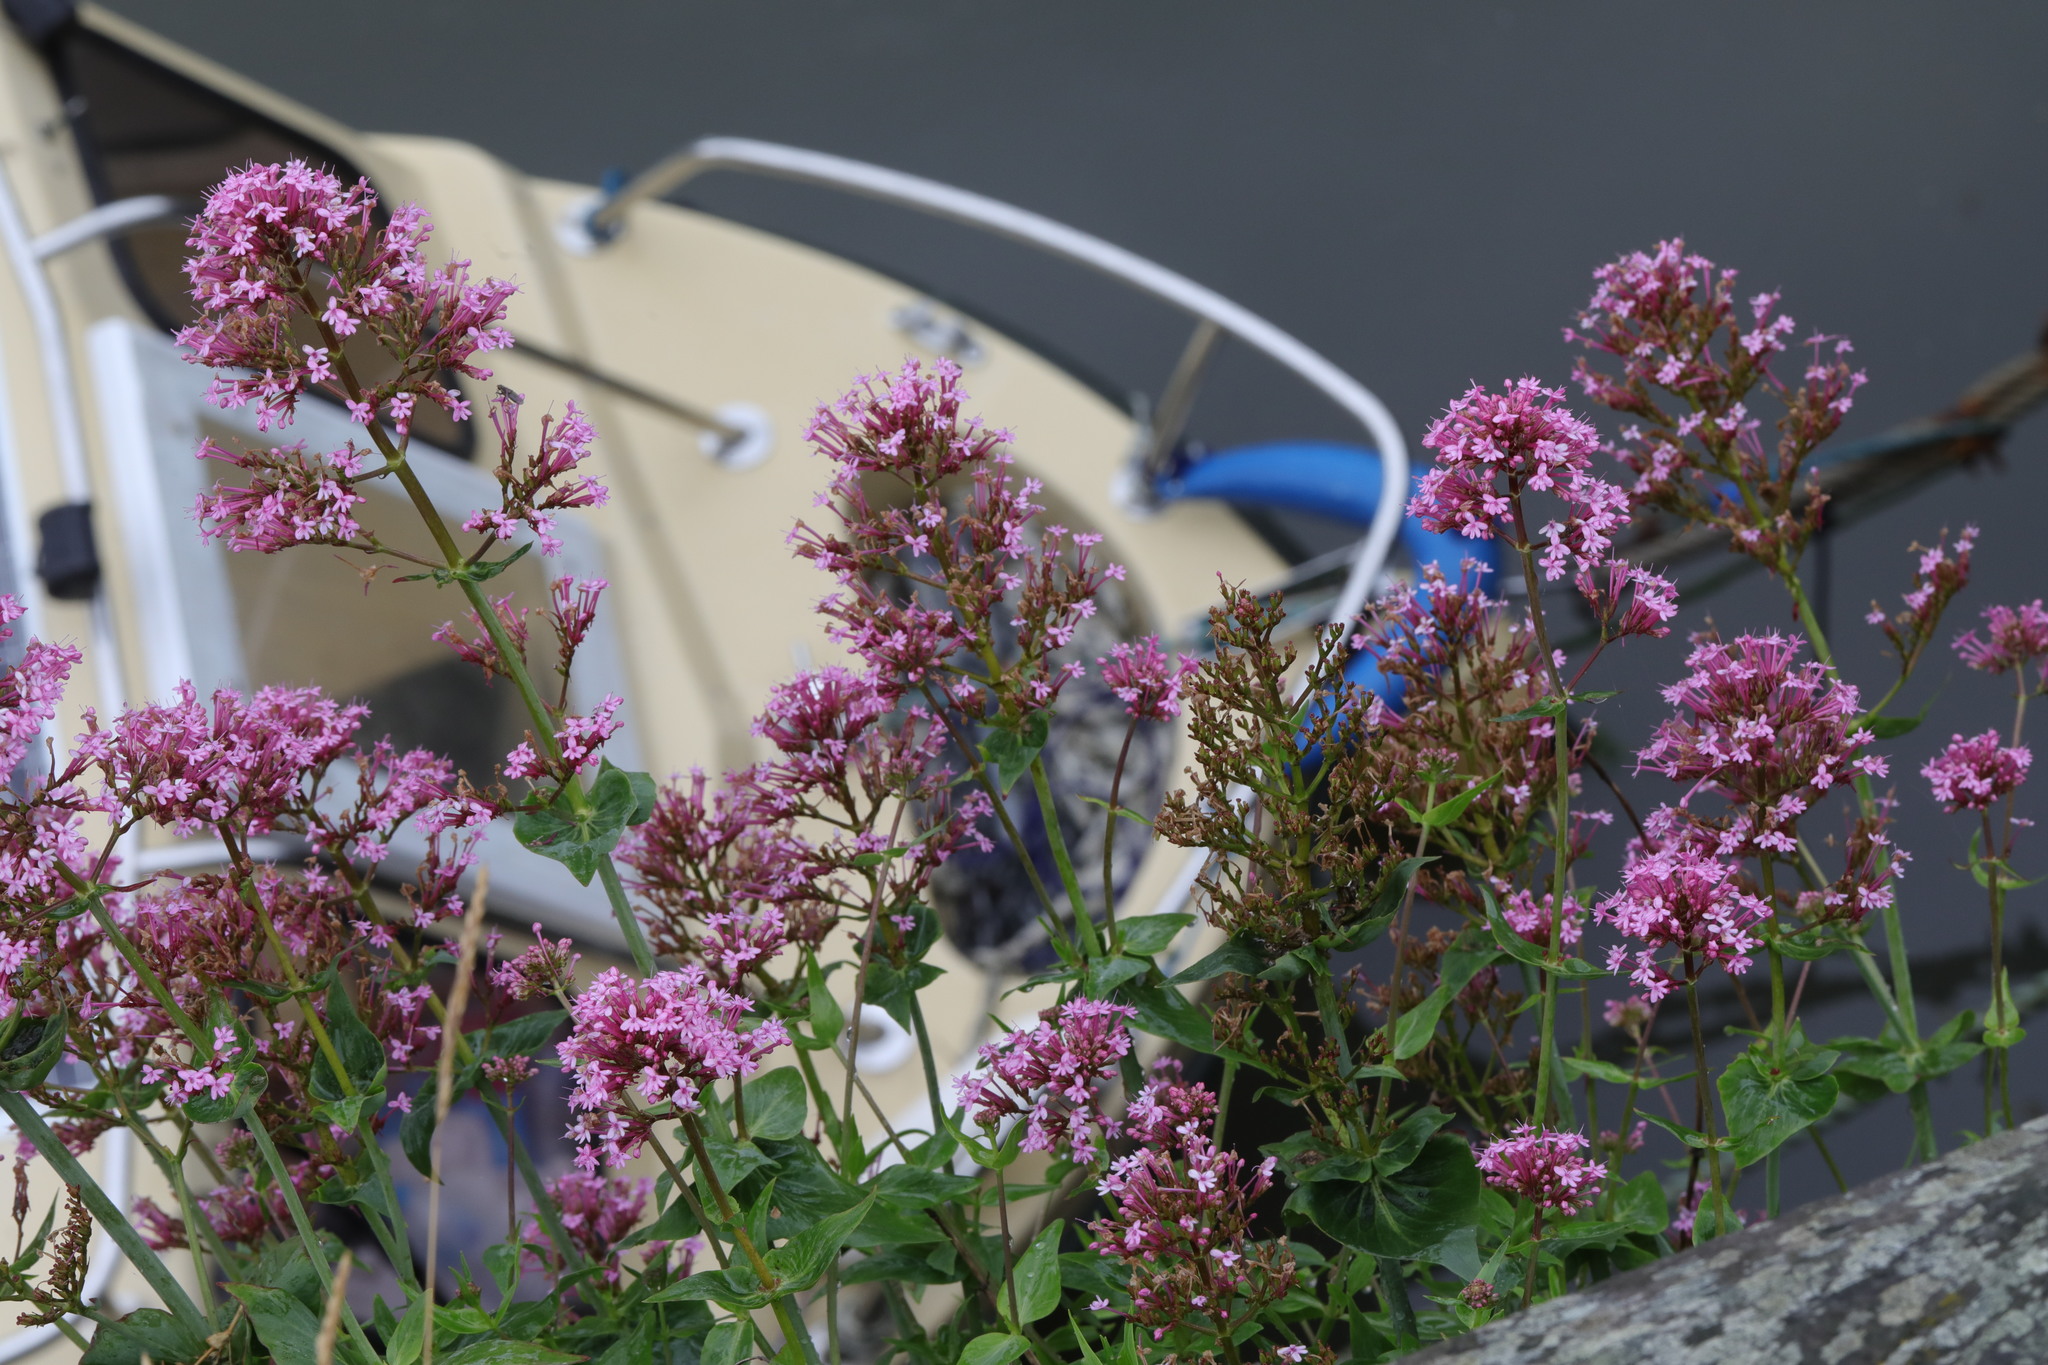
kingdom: Plantae
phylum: Tracheophyta
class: Magnoliopsida
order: Dipsacales
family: Caprifoliaceae
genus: Centranthus
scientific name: Centranthus ruber
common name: Red valerian
